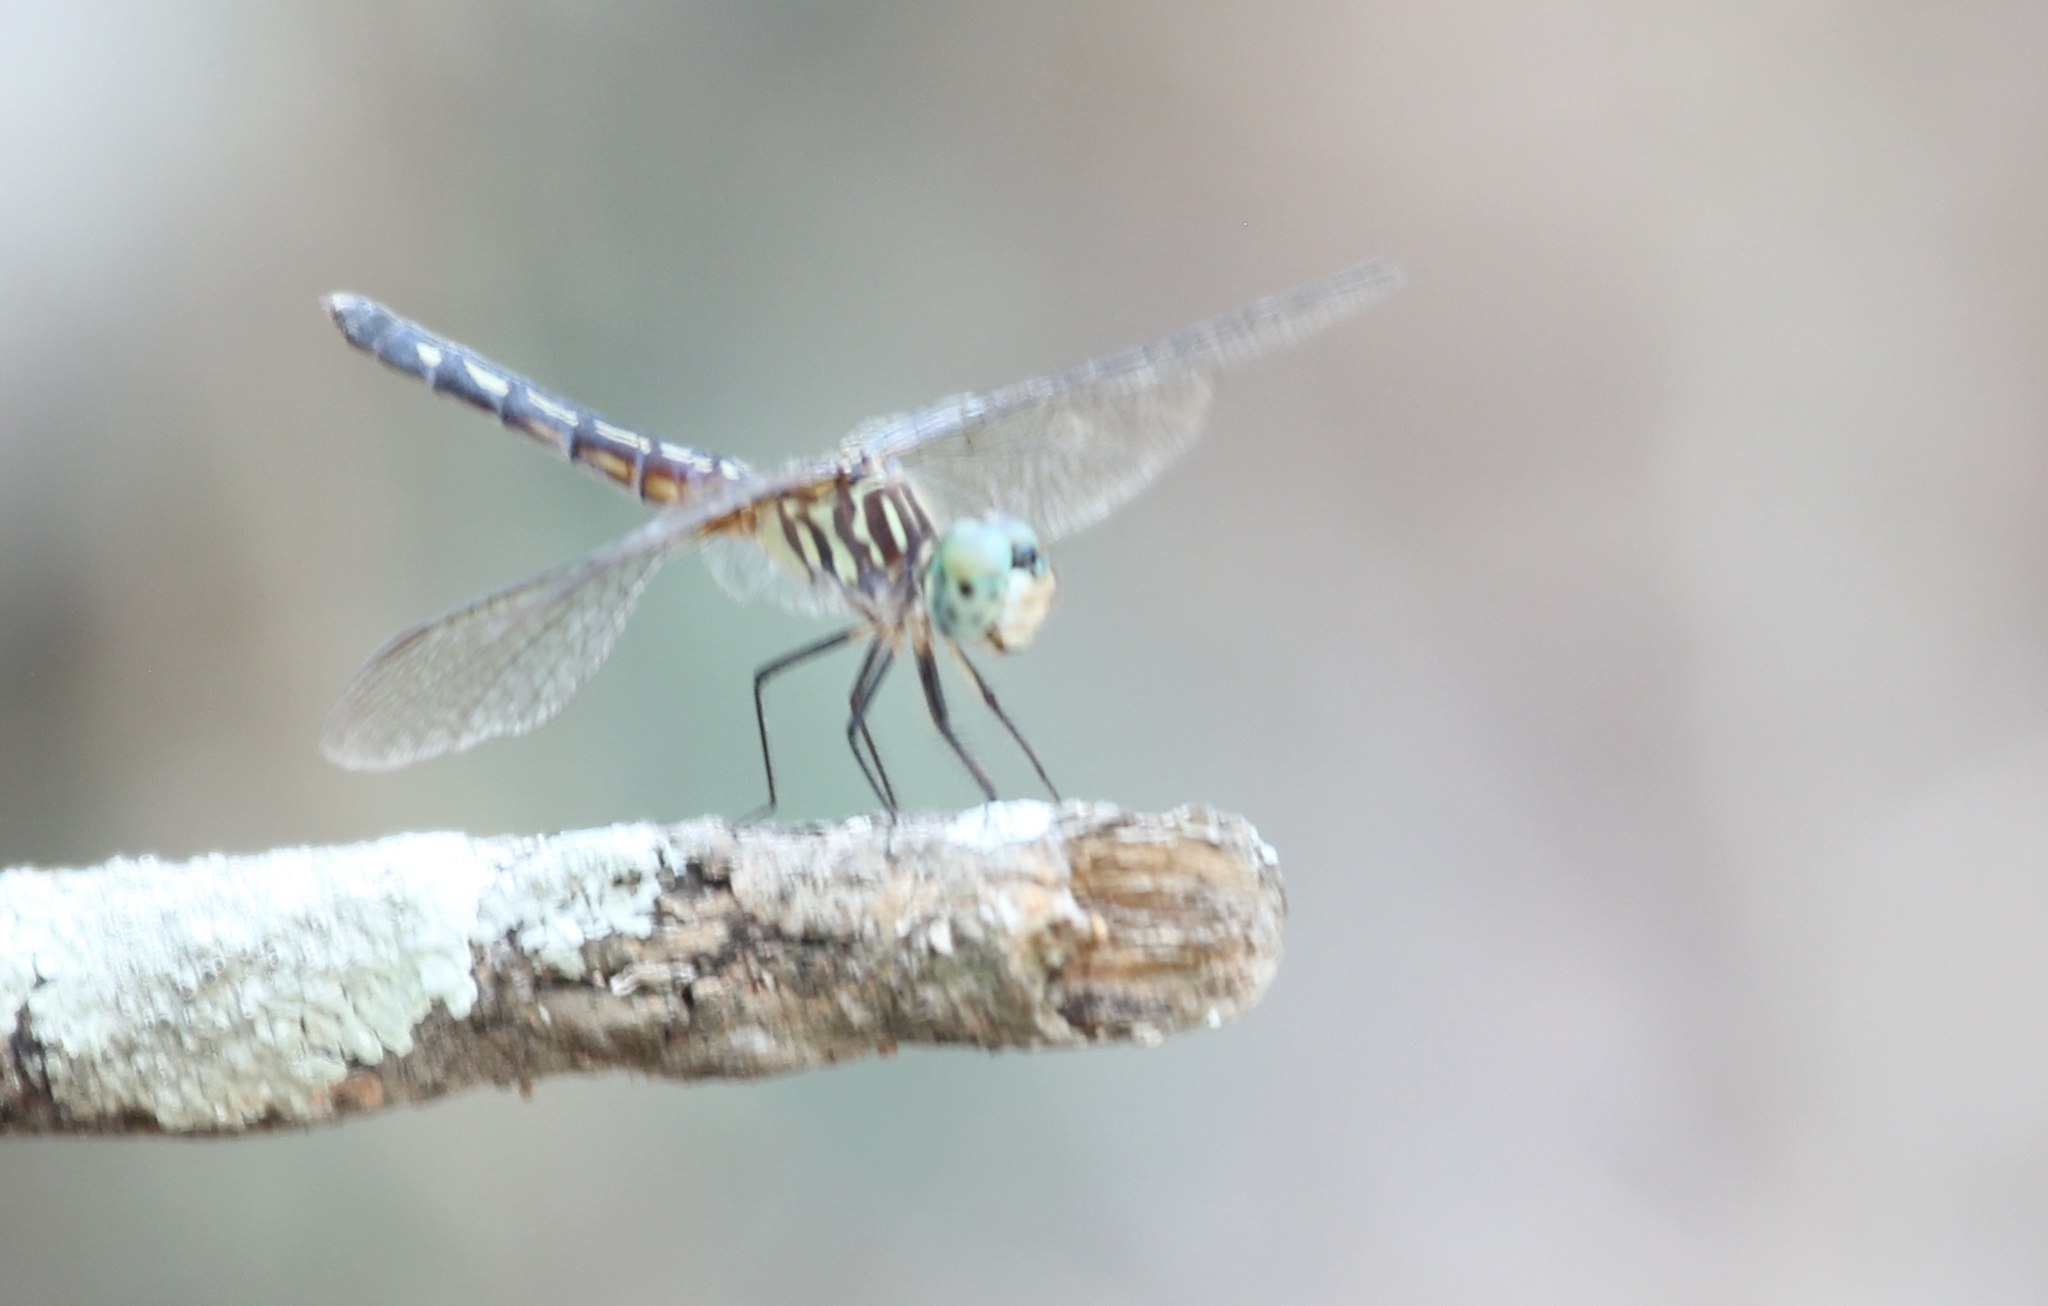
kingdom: Animalia
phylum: Arthropoda
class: Insecta
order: Odonata
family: Libellulidae
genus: Pachydiplax
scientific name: Pachydiplax longipennis
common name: Blue dasher
